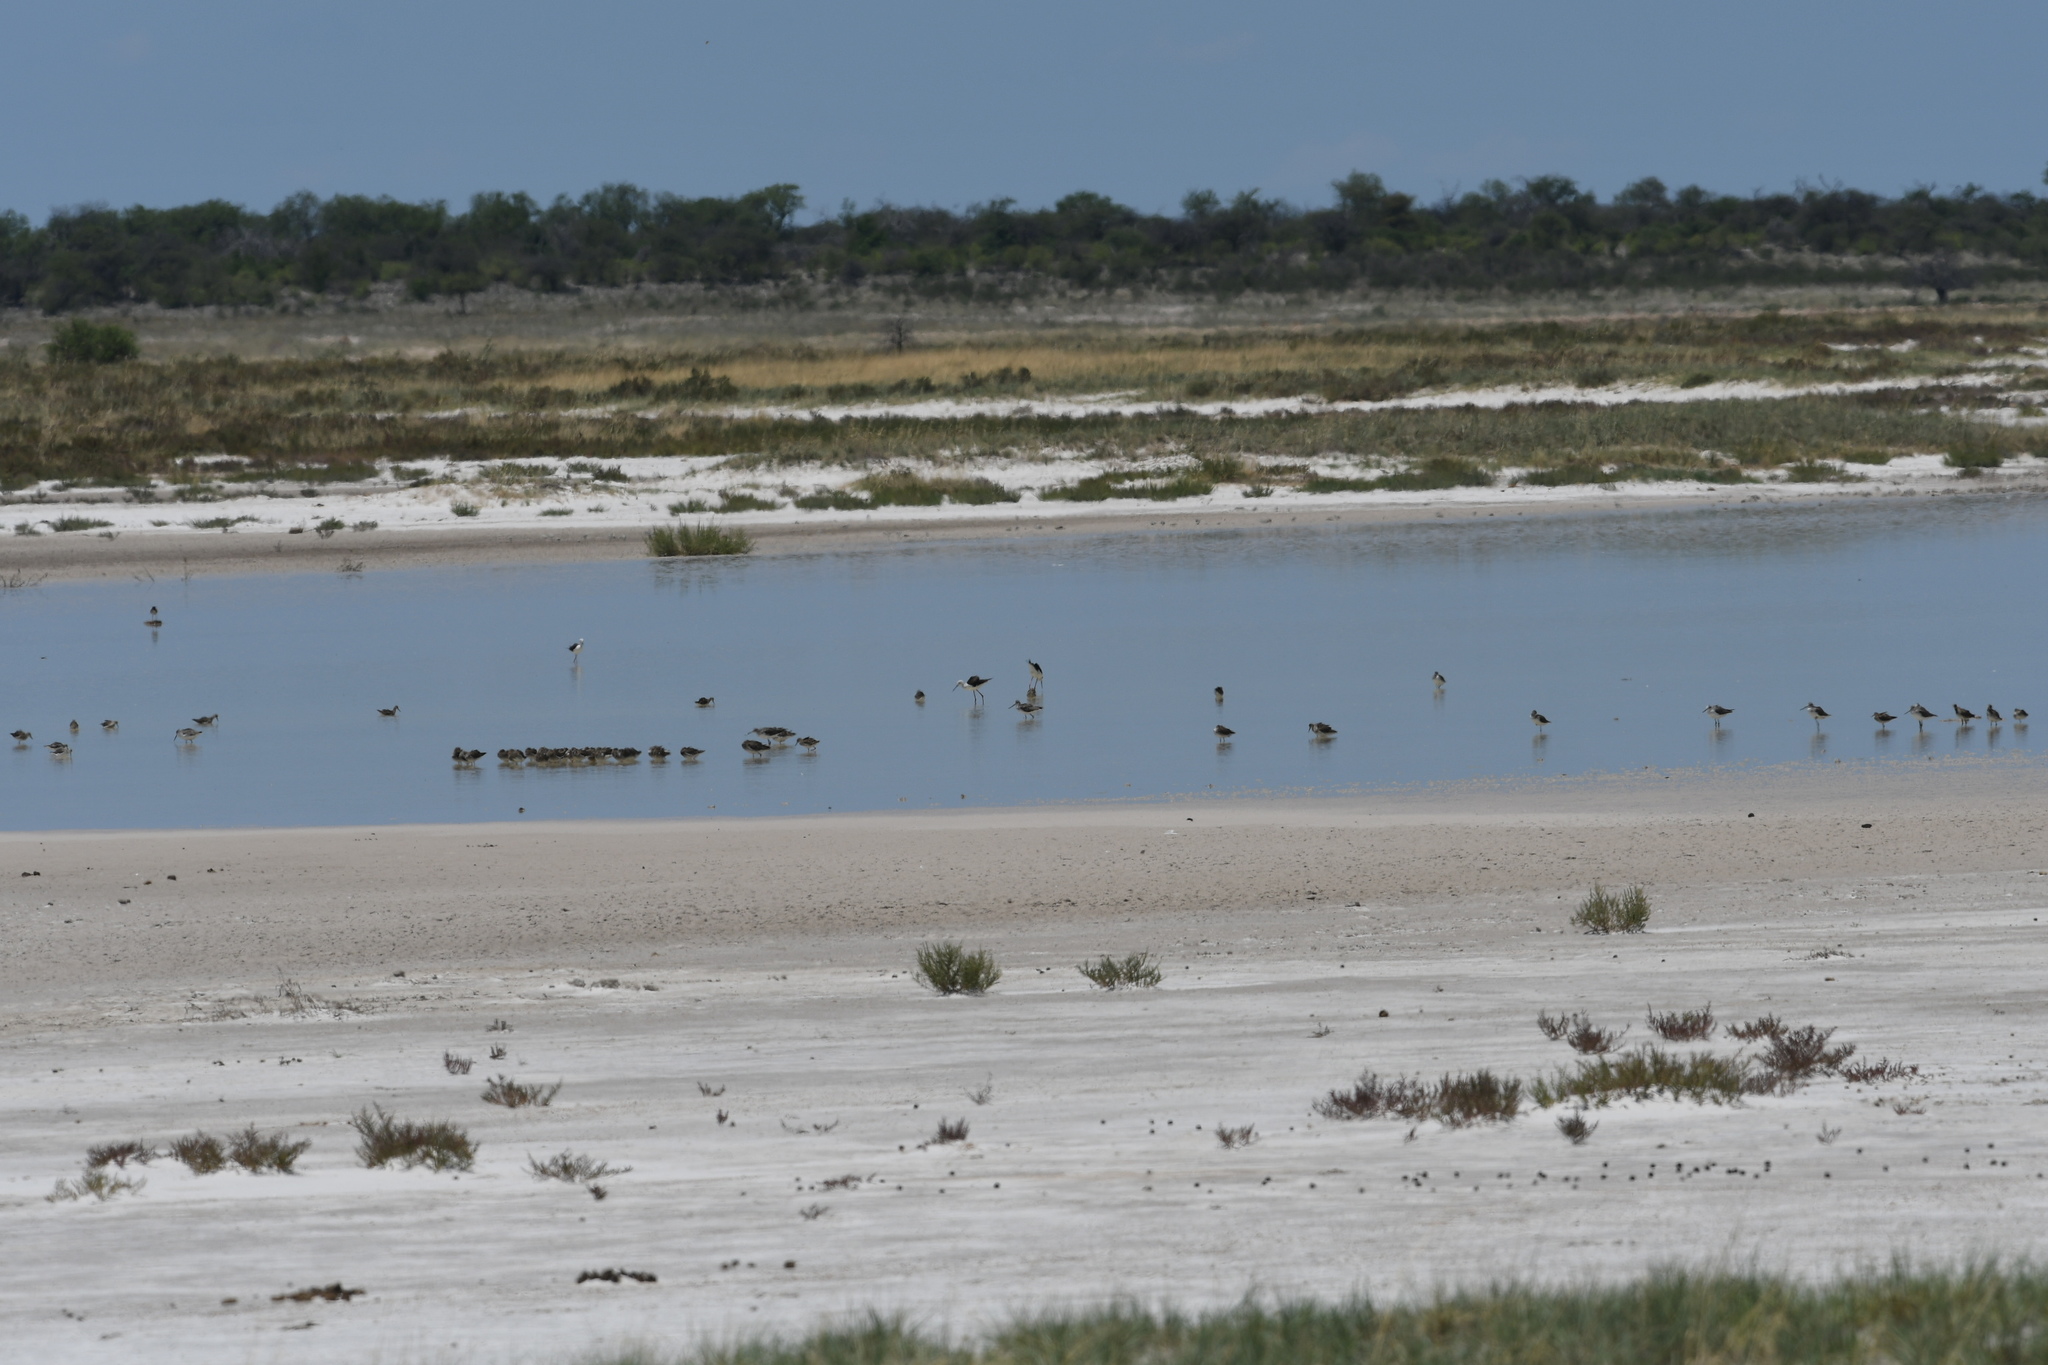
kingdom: Animalia
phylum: Chordata
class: Aves
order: Charadriiformes
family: Recurvirostridae
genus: Himantopus
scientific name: Himantopus himantopus
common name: Black-winged stilt
